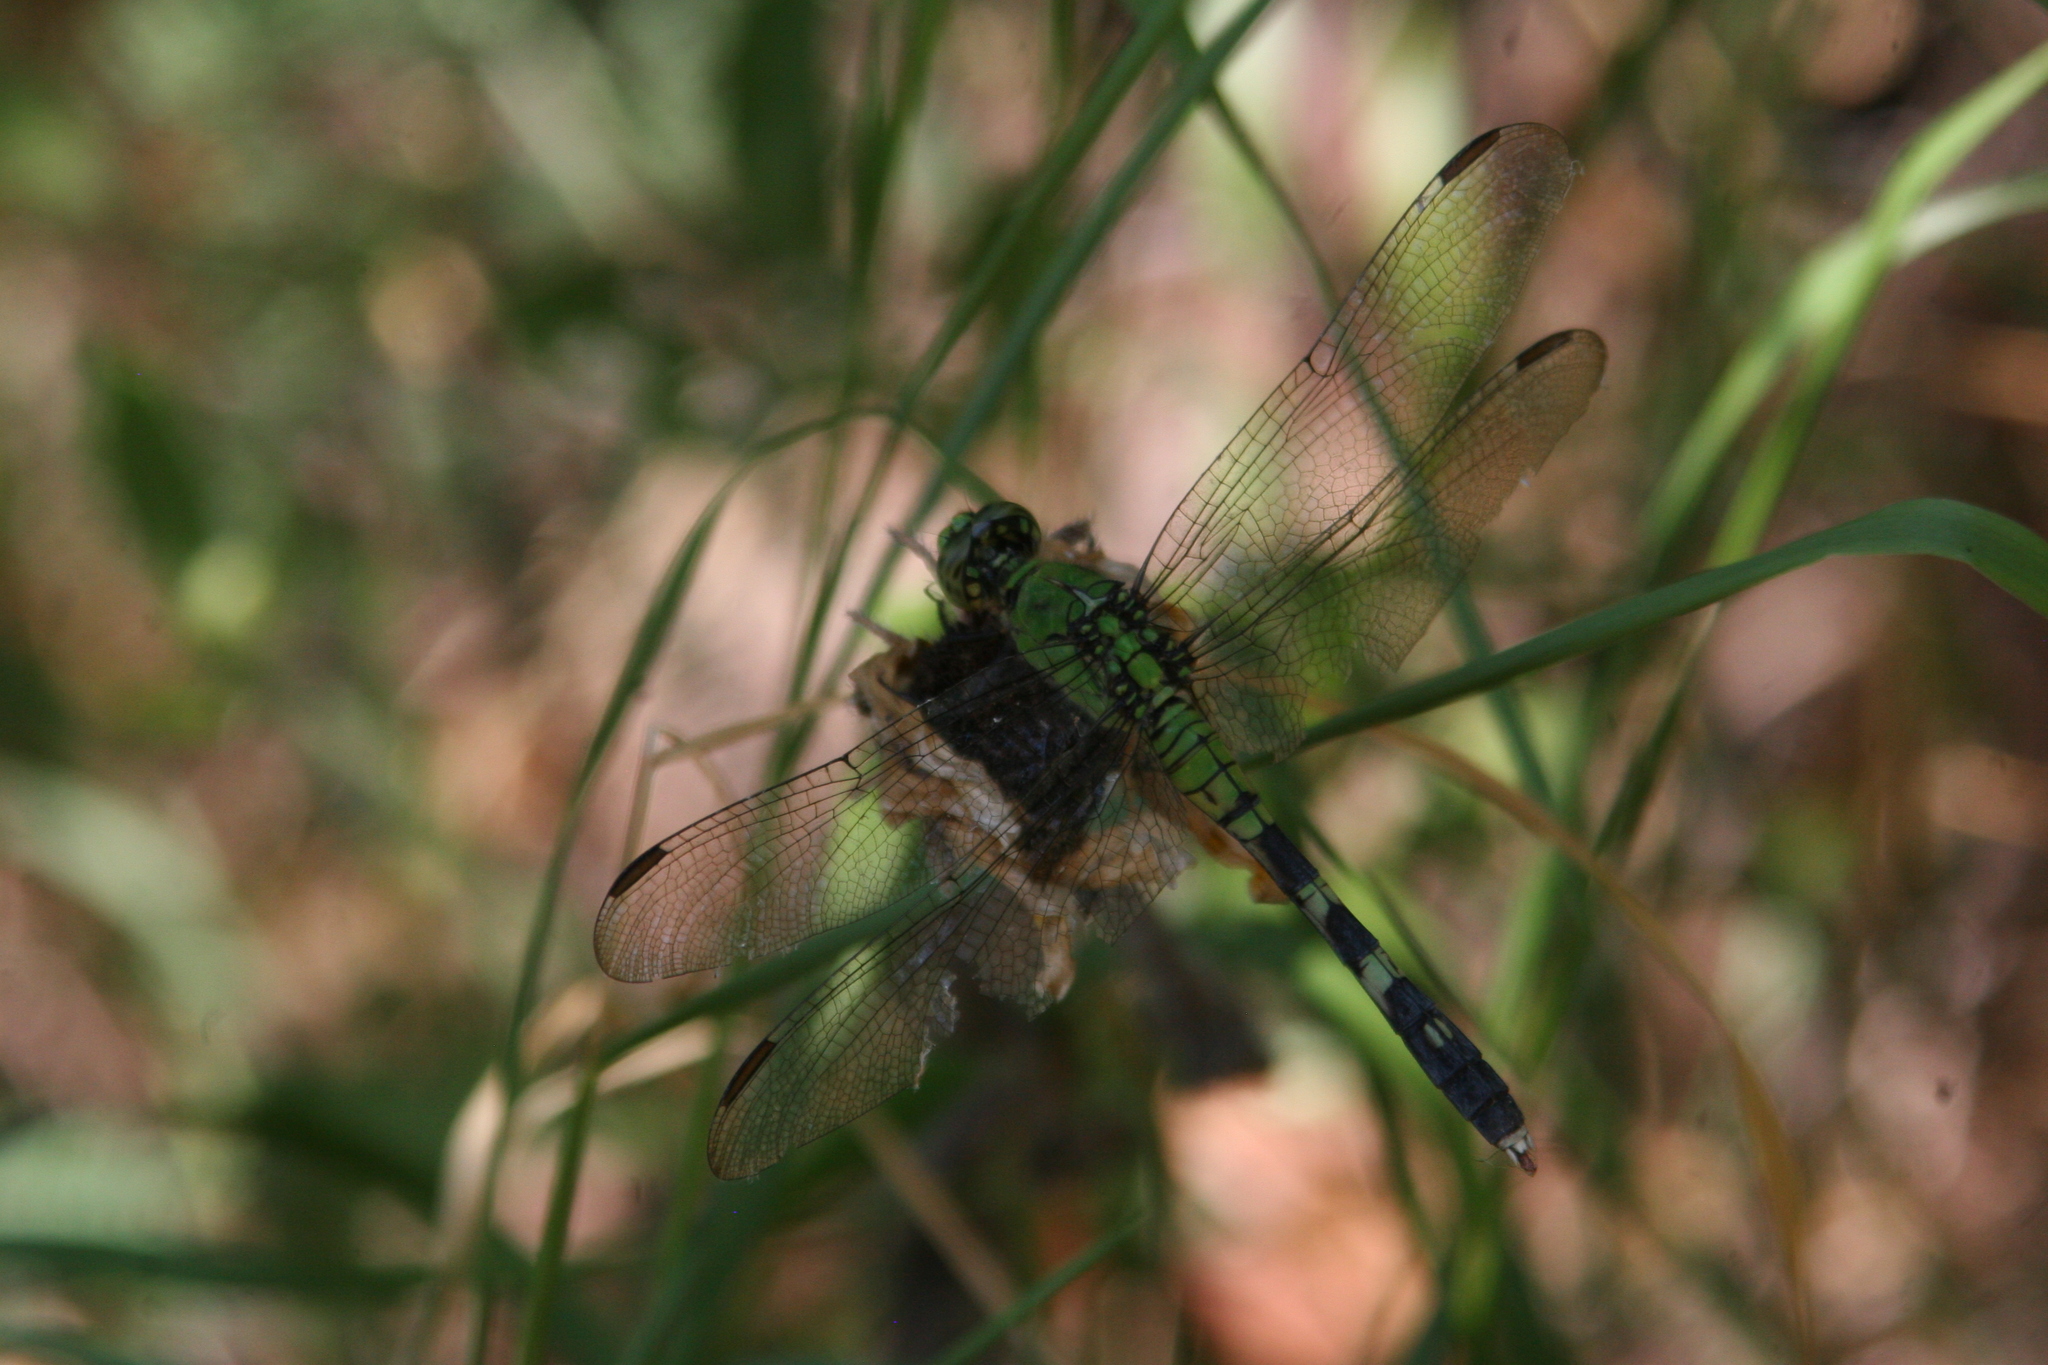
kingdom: Animalia
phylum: Arthropoda
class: Insecta
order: Odonata
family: Libellulidae
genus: Erythemis
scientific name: Erythemis simplicicollis
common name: Eastern pondhawk
